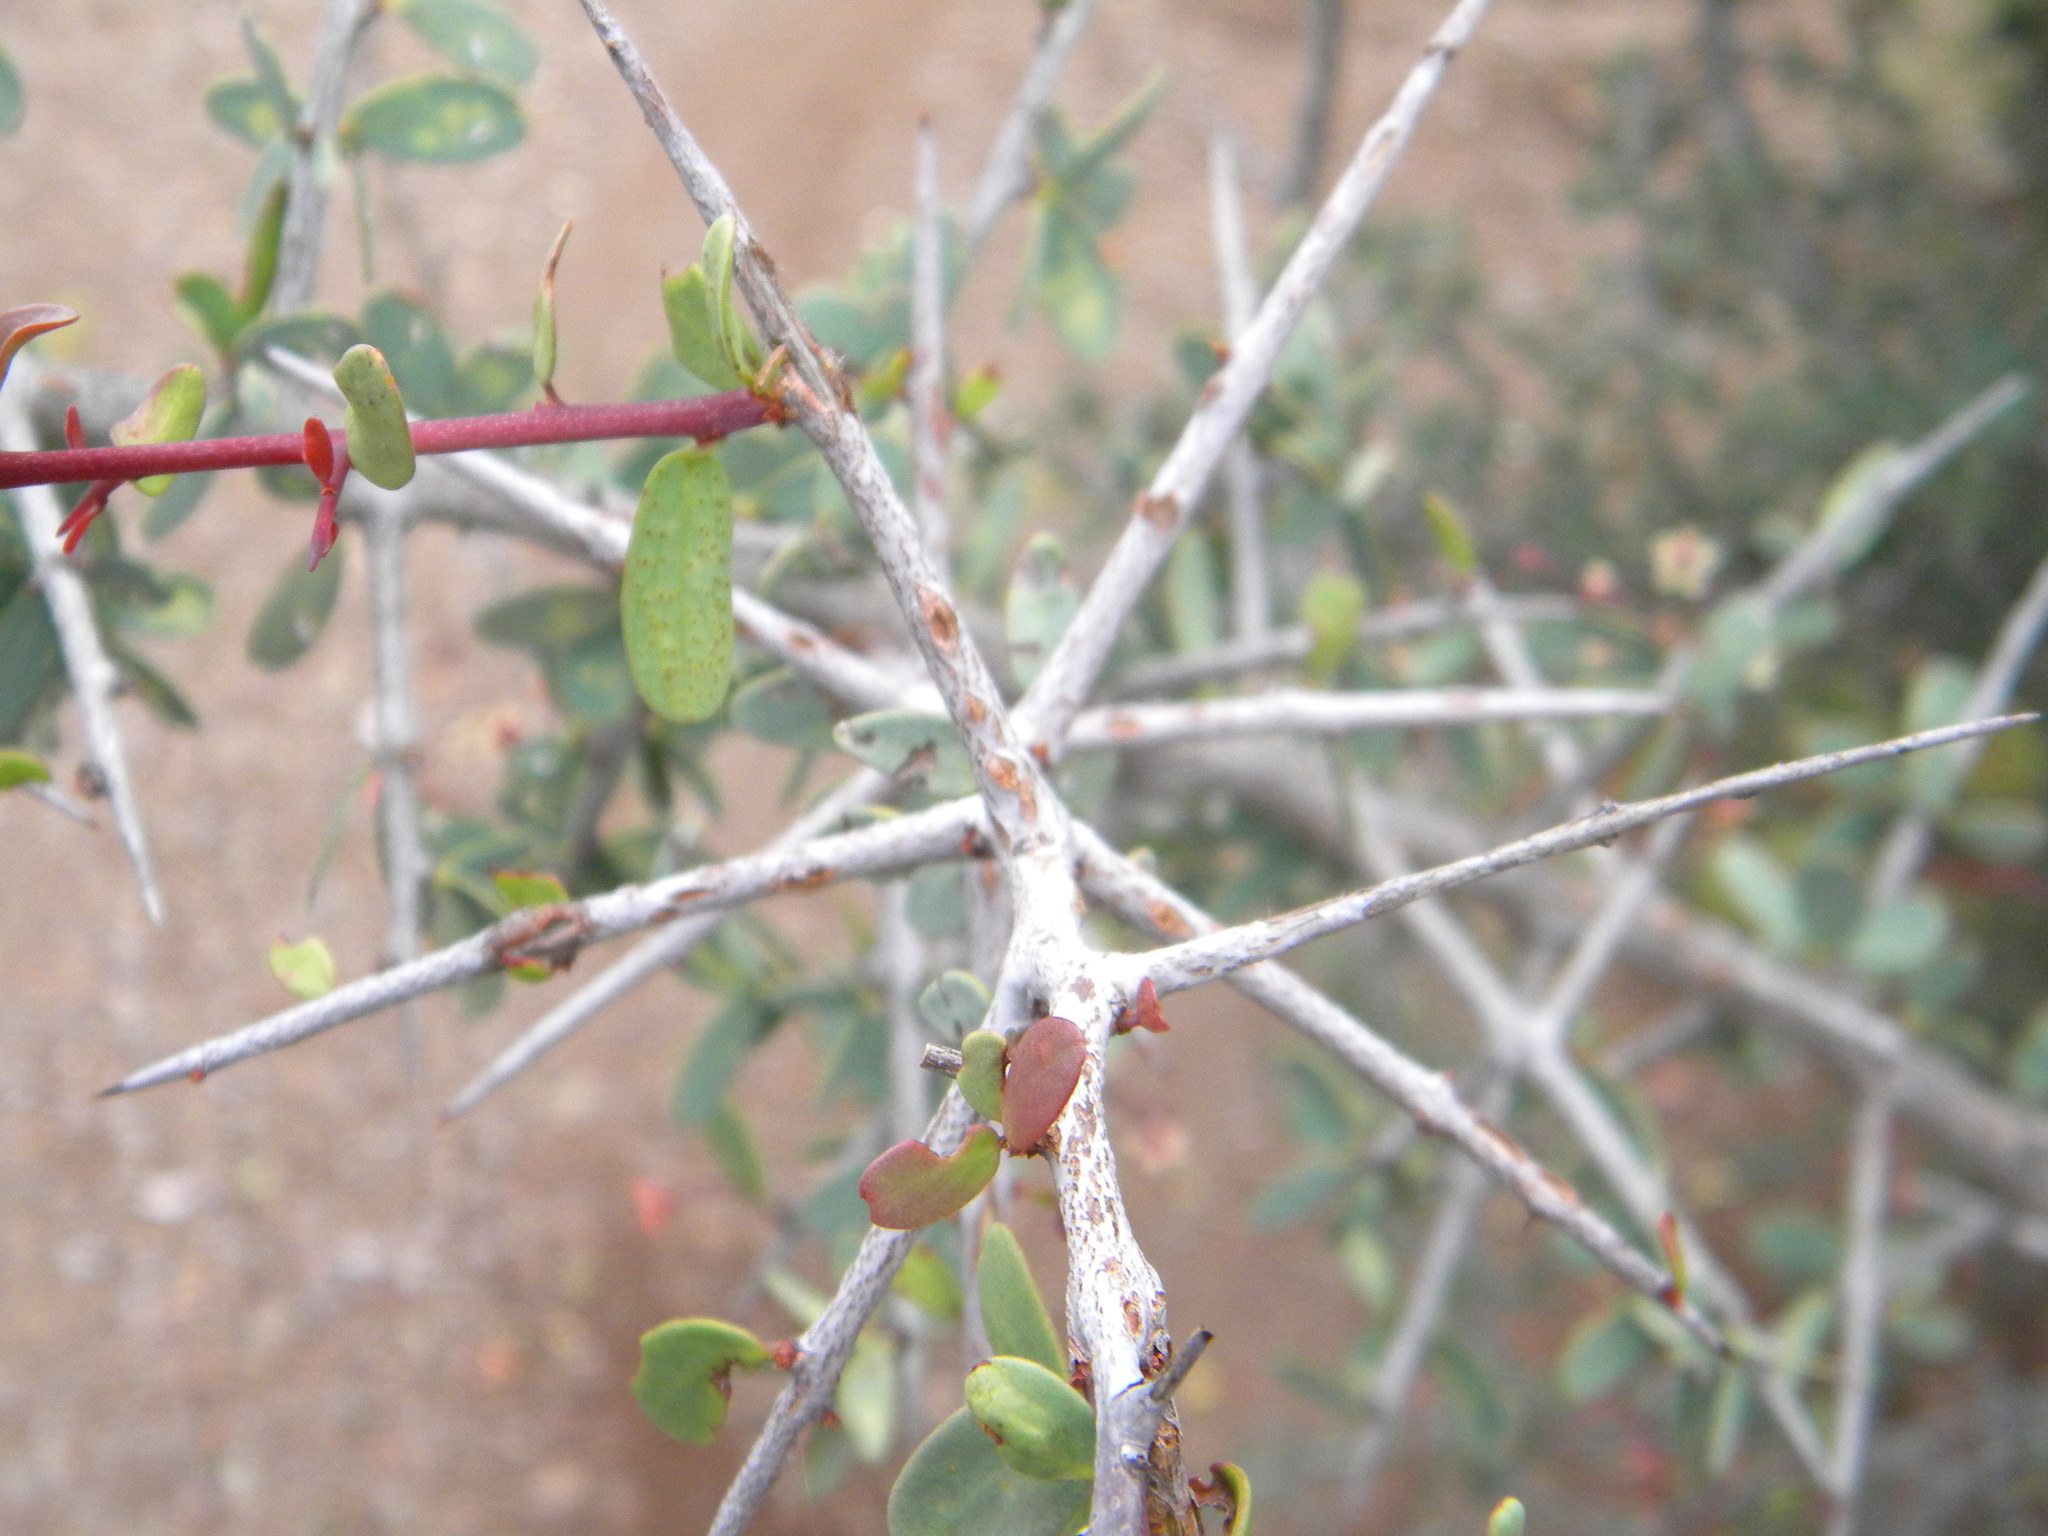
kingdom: Plantae
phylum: Tracheophyta
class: Magnoliopsida
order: Celastrales
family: Celastraceae
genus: Gloveria
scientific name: Gloveria integrifolia
